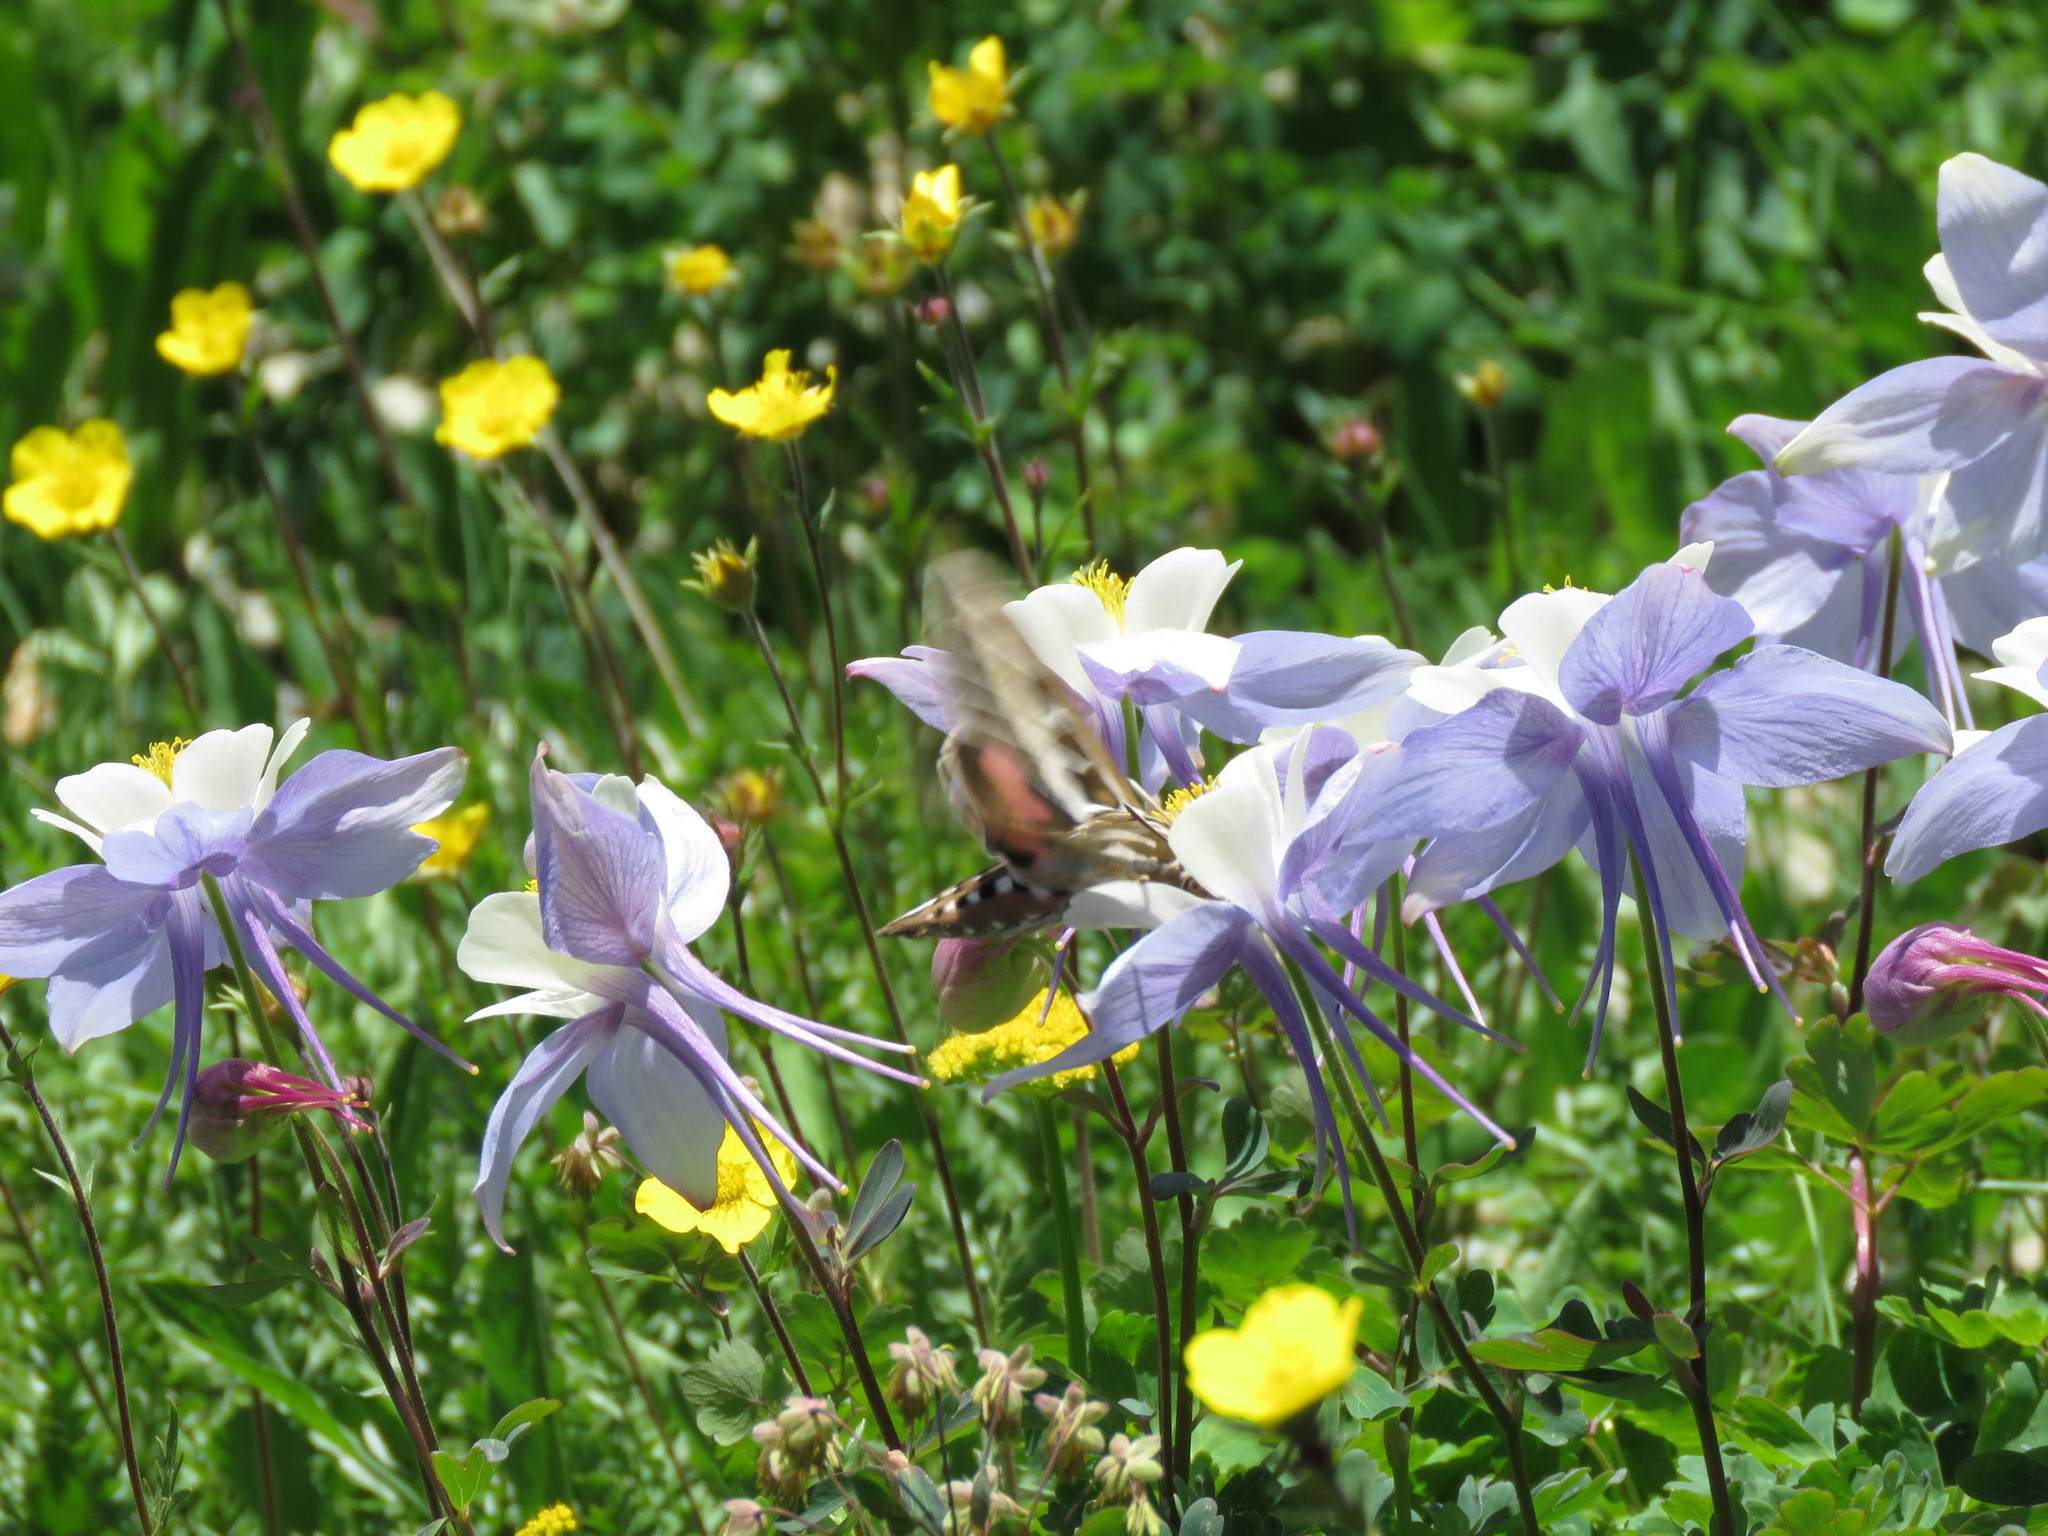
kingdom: Animalia
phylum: Arthropoda
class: Insecta
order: Lepidoptera
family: Sphingidae
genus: Hyles
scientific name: Hyles lineata
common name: White-lined sphinx
